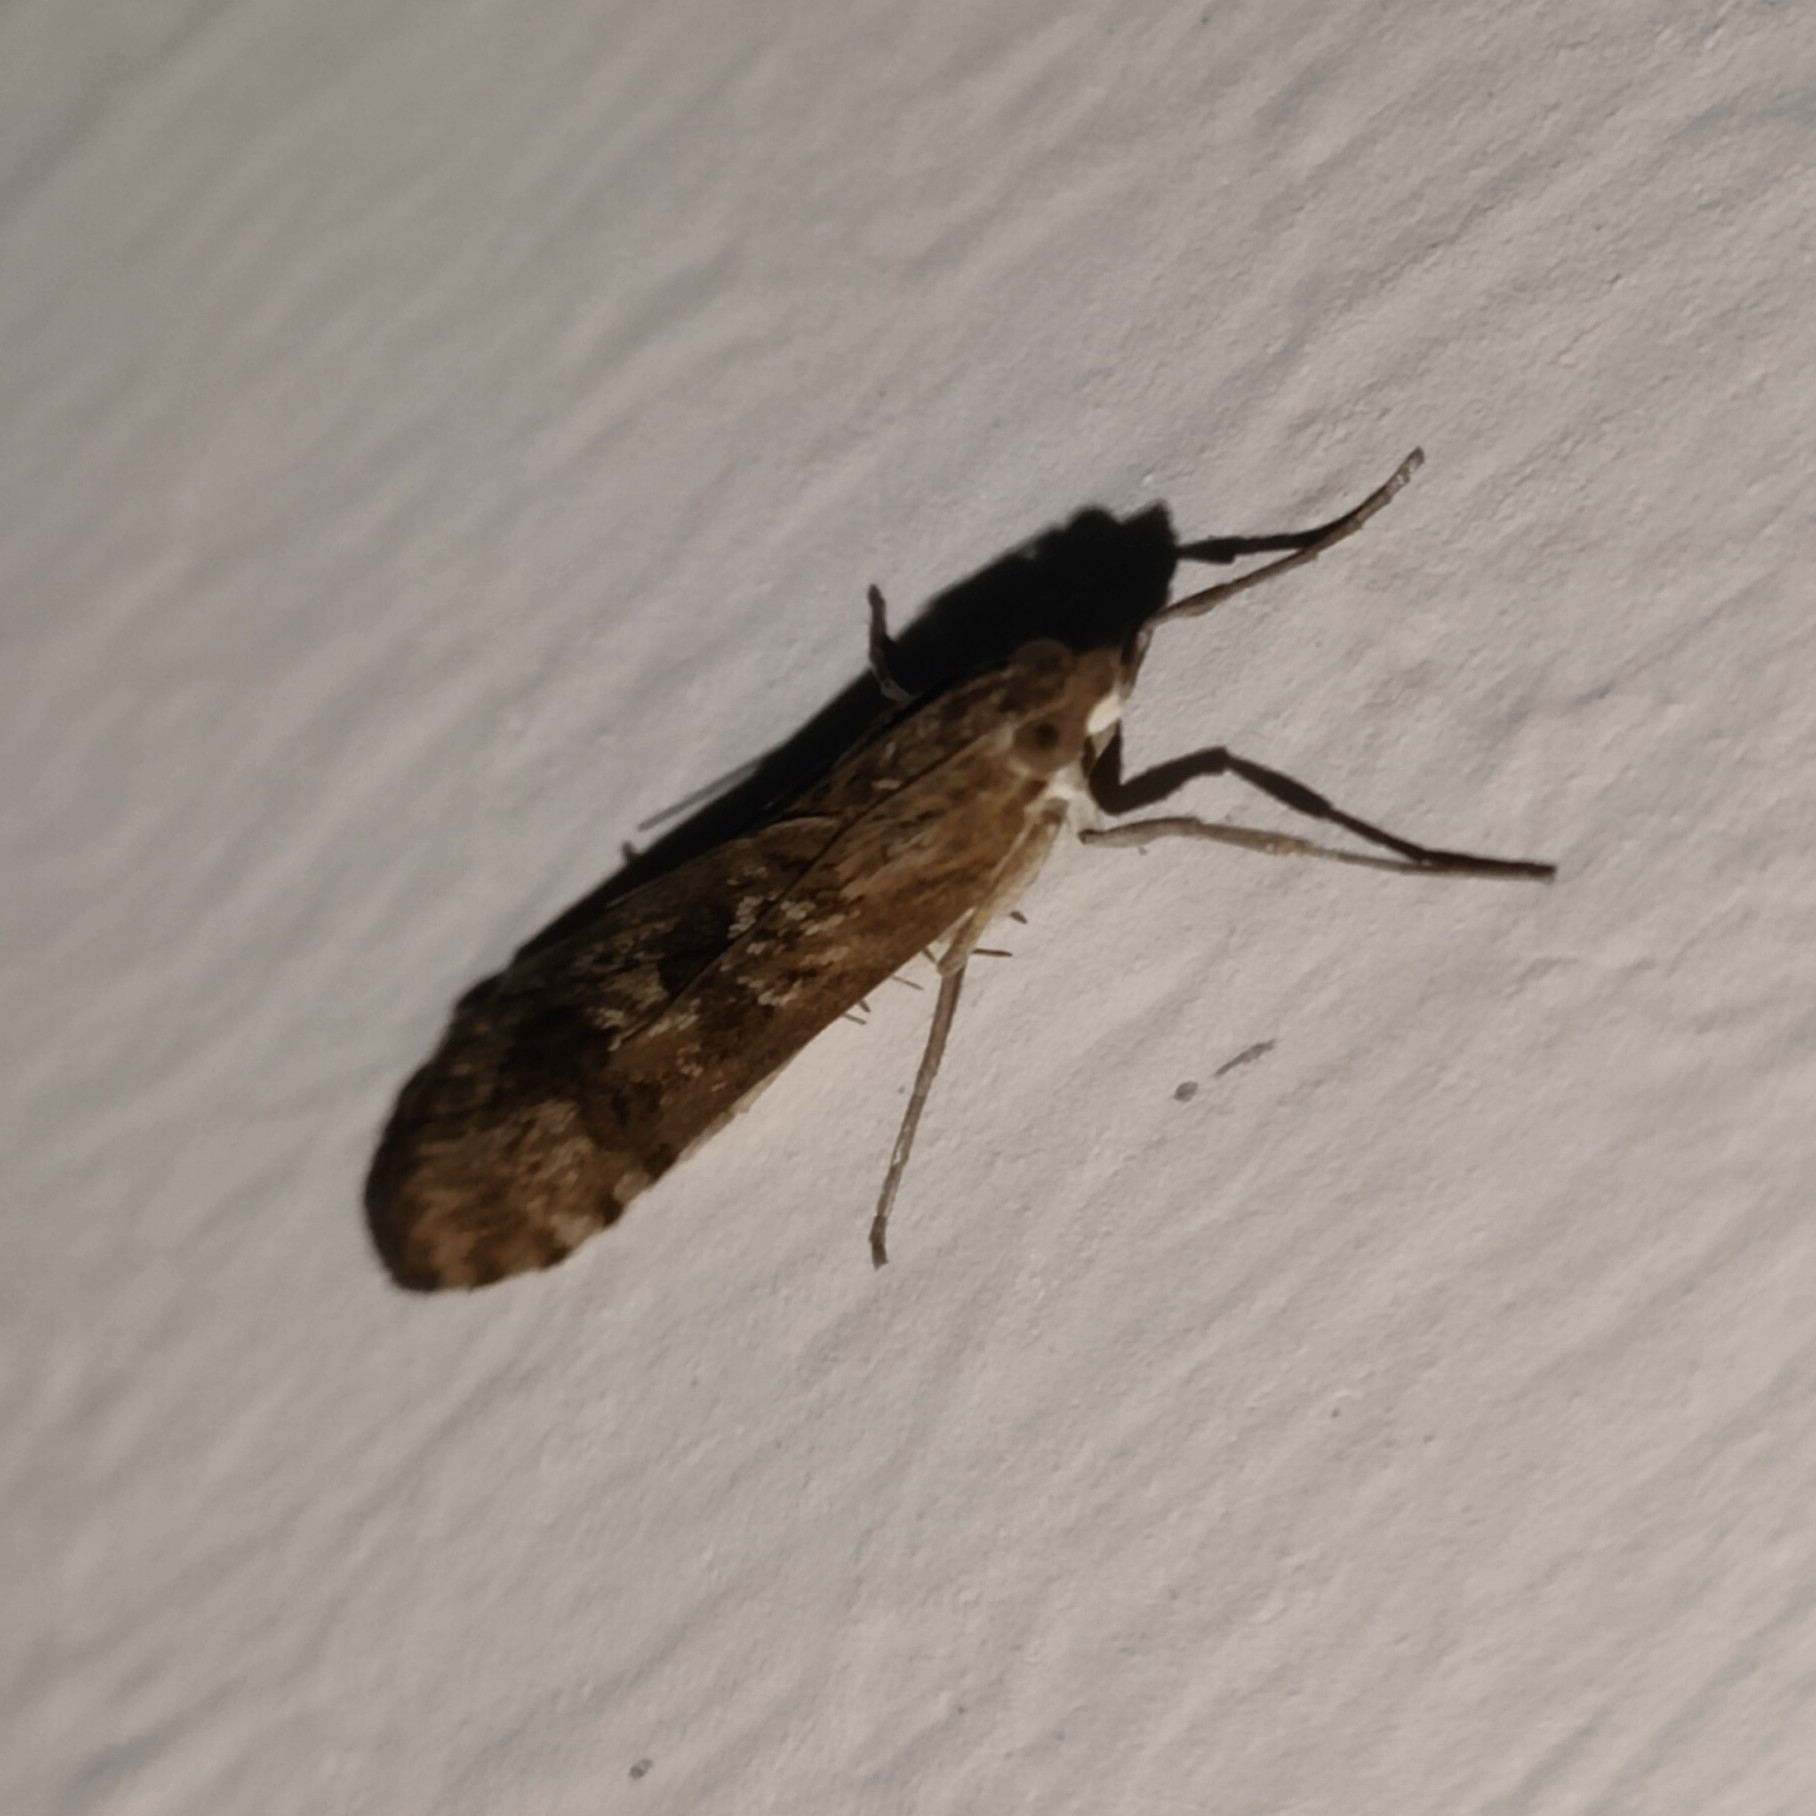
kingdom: Animalia
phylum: Arthropoda
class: Insecta
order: Lepidoptera
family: Crambidae
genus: Nomophila
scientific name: Nomophila noctuella
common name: Rush veneer
